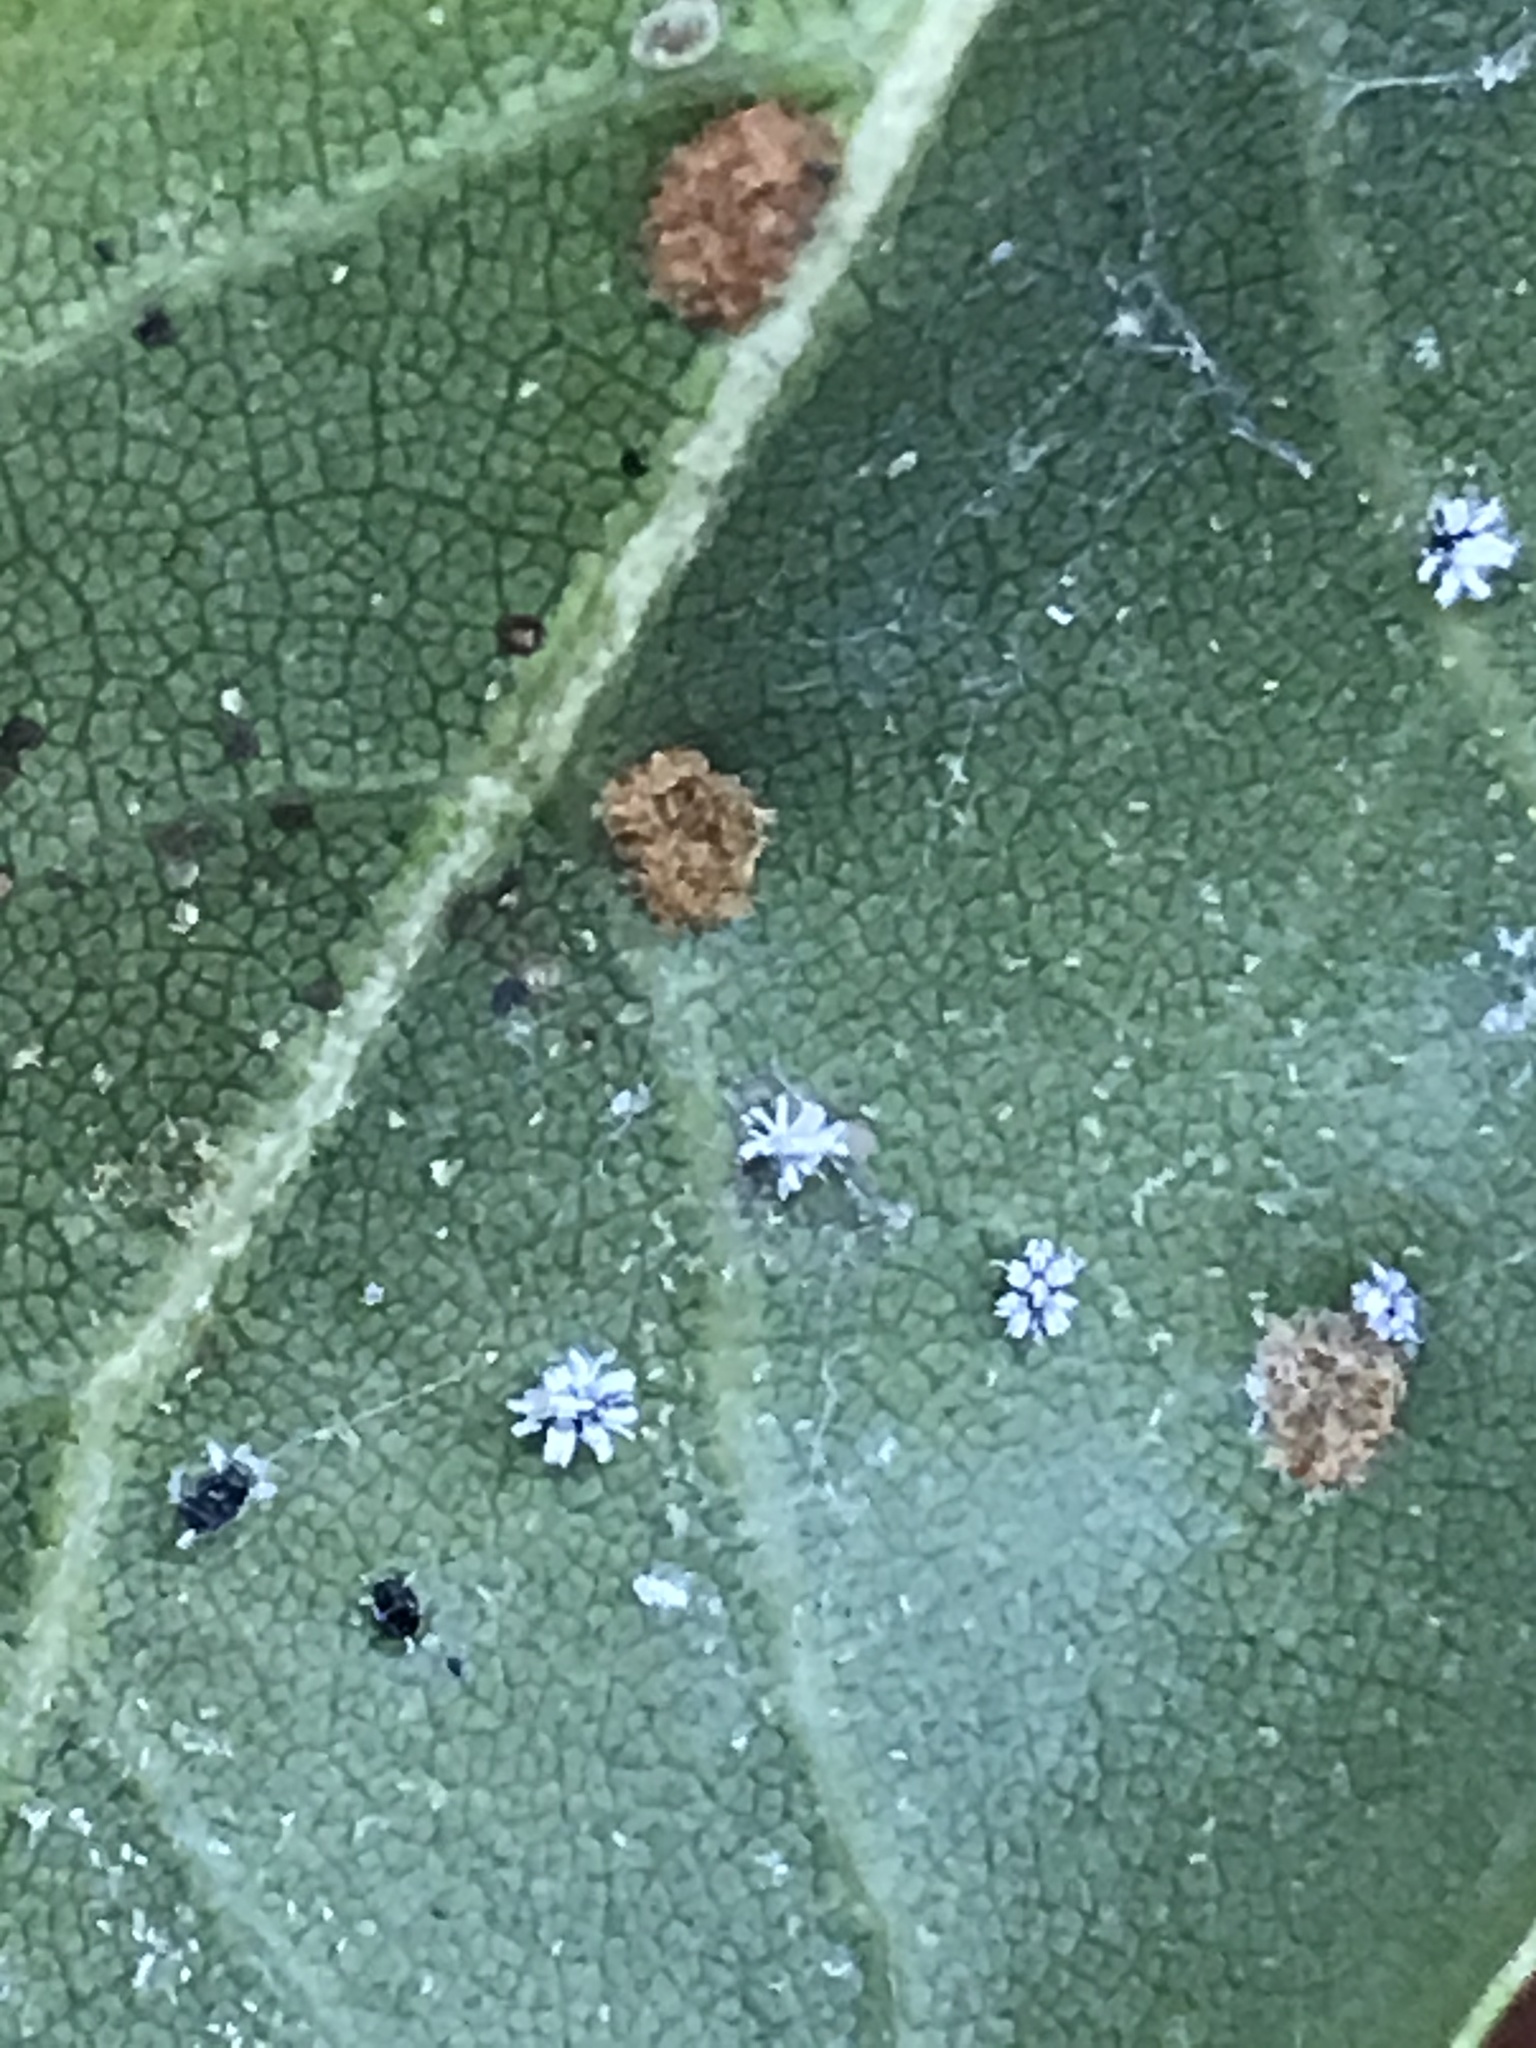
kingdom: Animalia
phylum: Arthropoda
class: Insecta
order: Hemiptera
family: Aleyrodidae
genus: Aleuroplatus
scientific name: Aleuroplatus coronata
